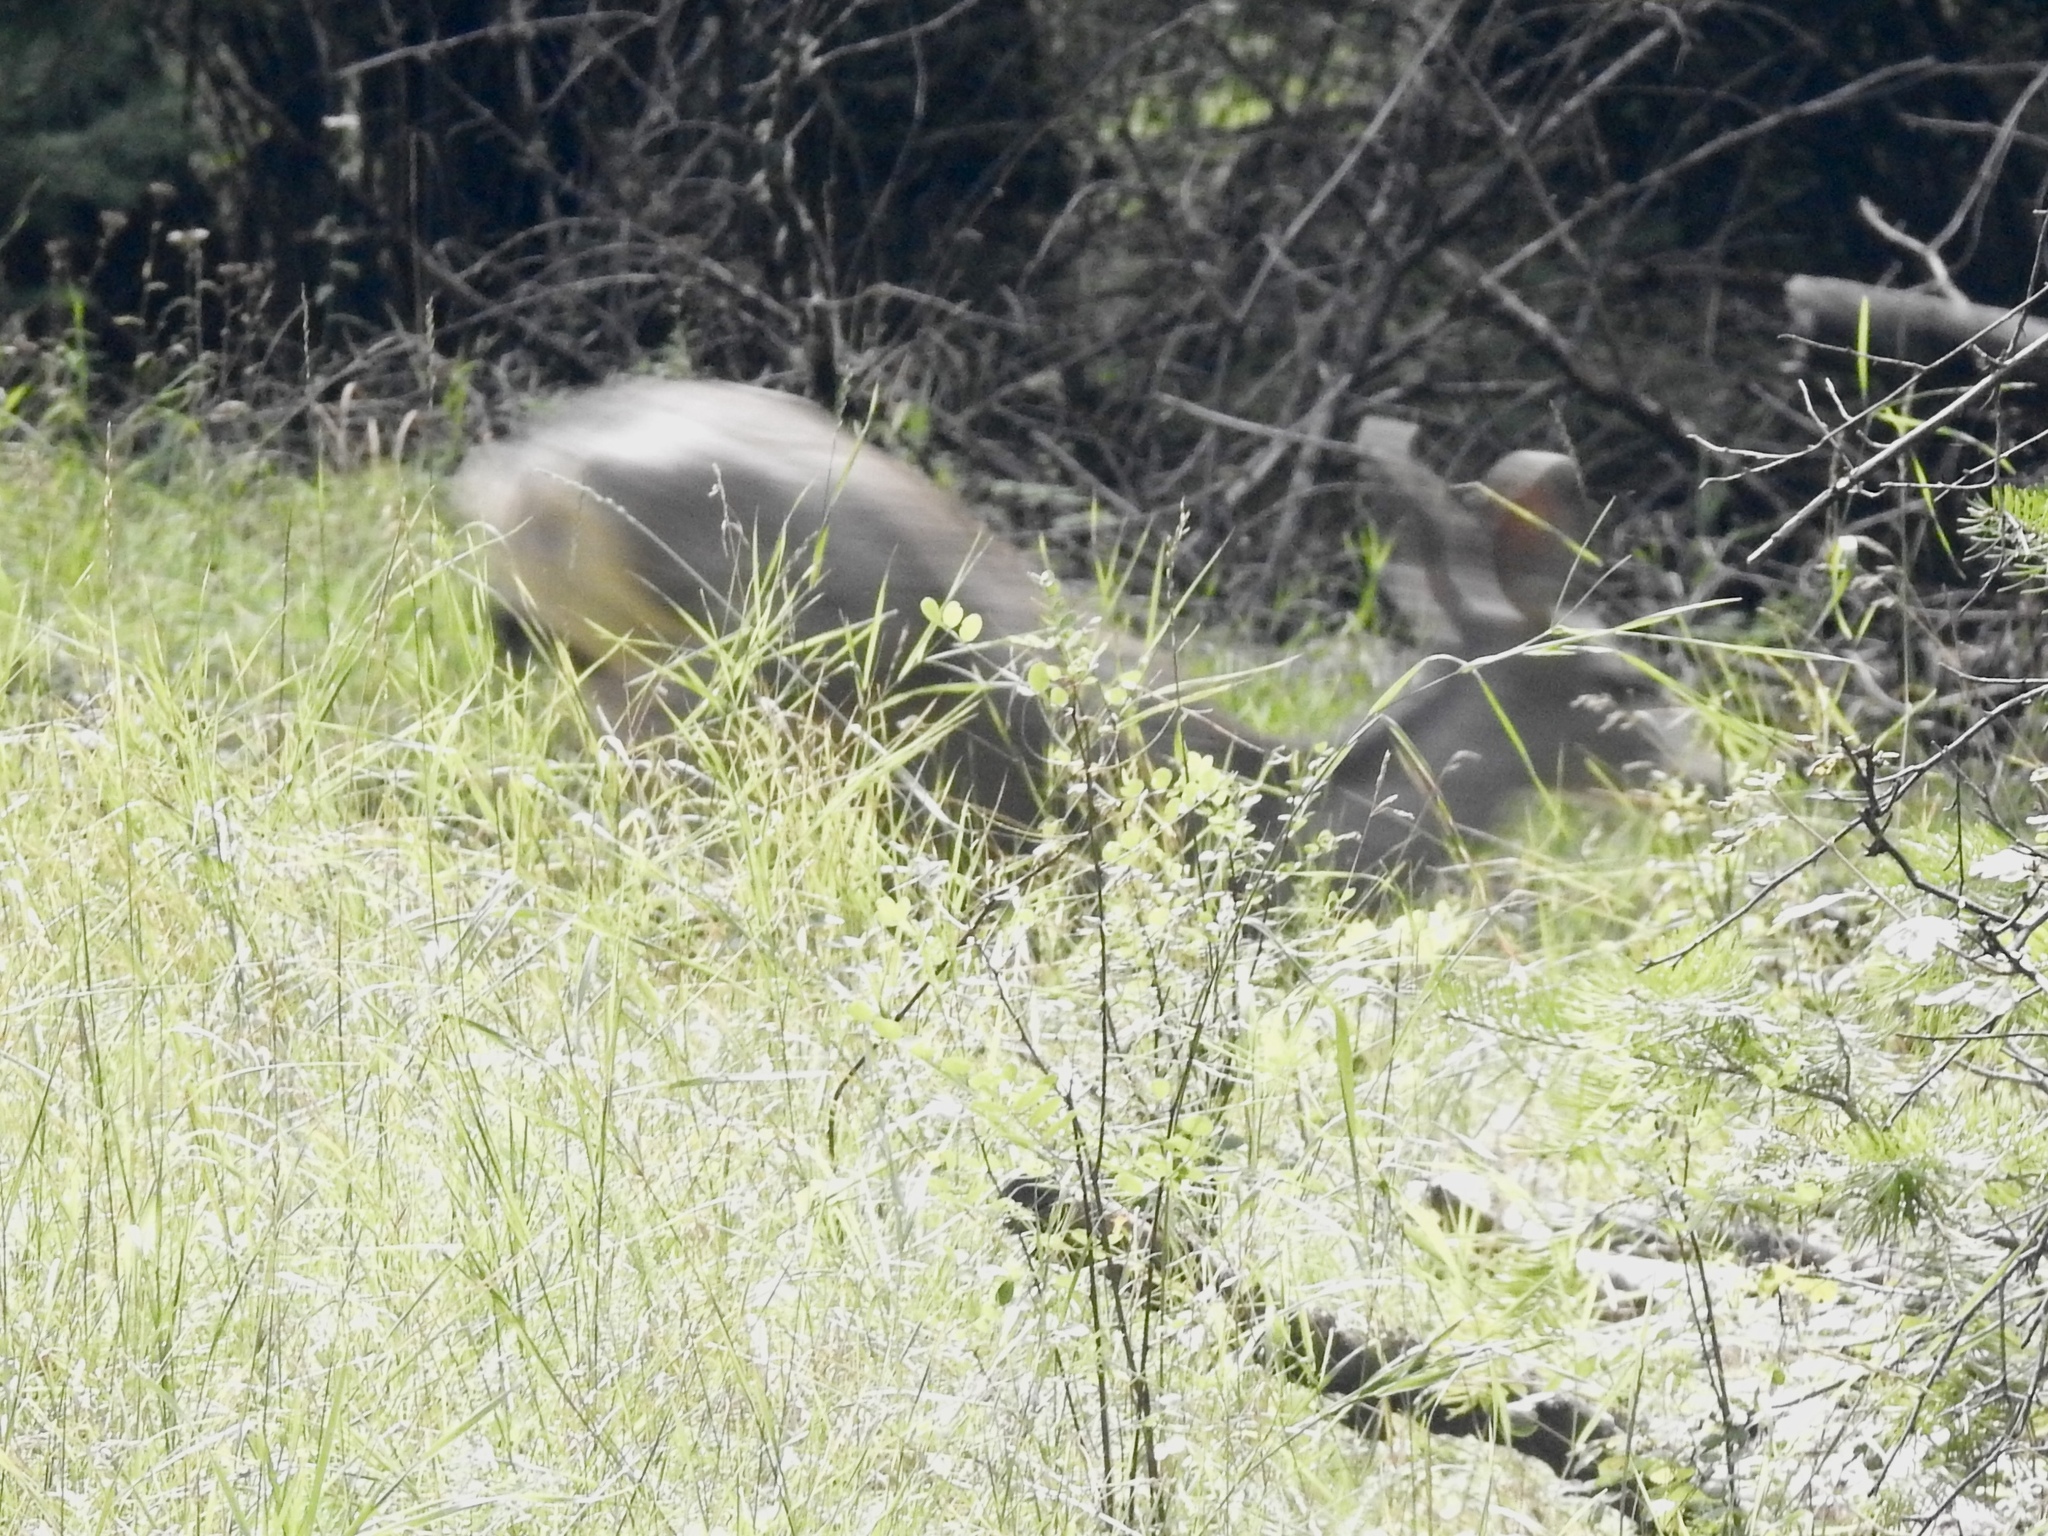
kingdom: Animalia
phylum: Chordata
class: Mammalia
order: Artiodactyla
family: Cervidae
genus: Odocoileus
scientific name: Odocoileus hemionus
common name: Mule deer
